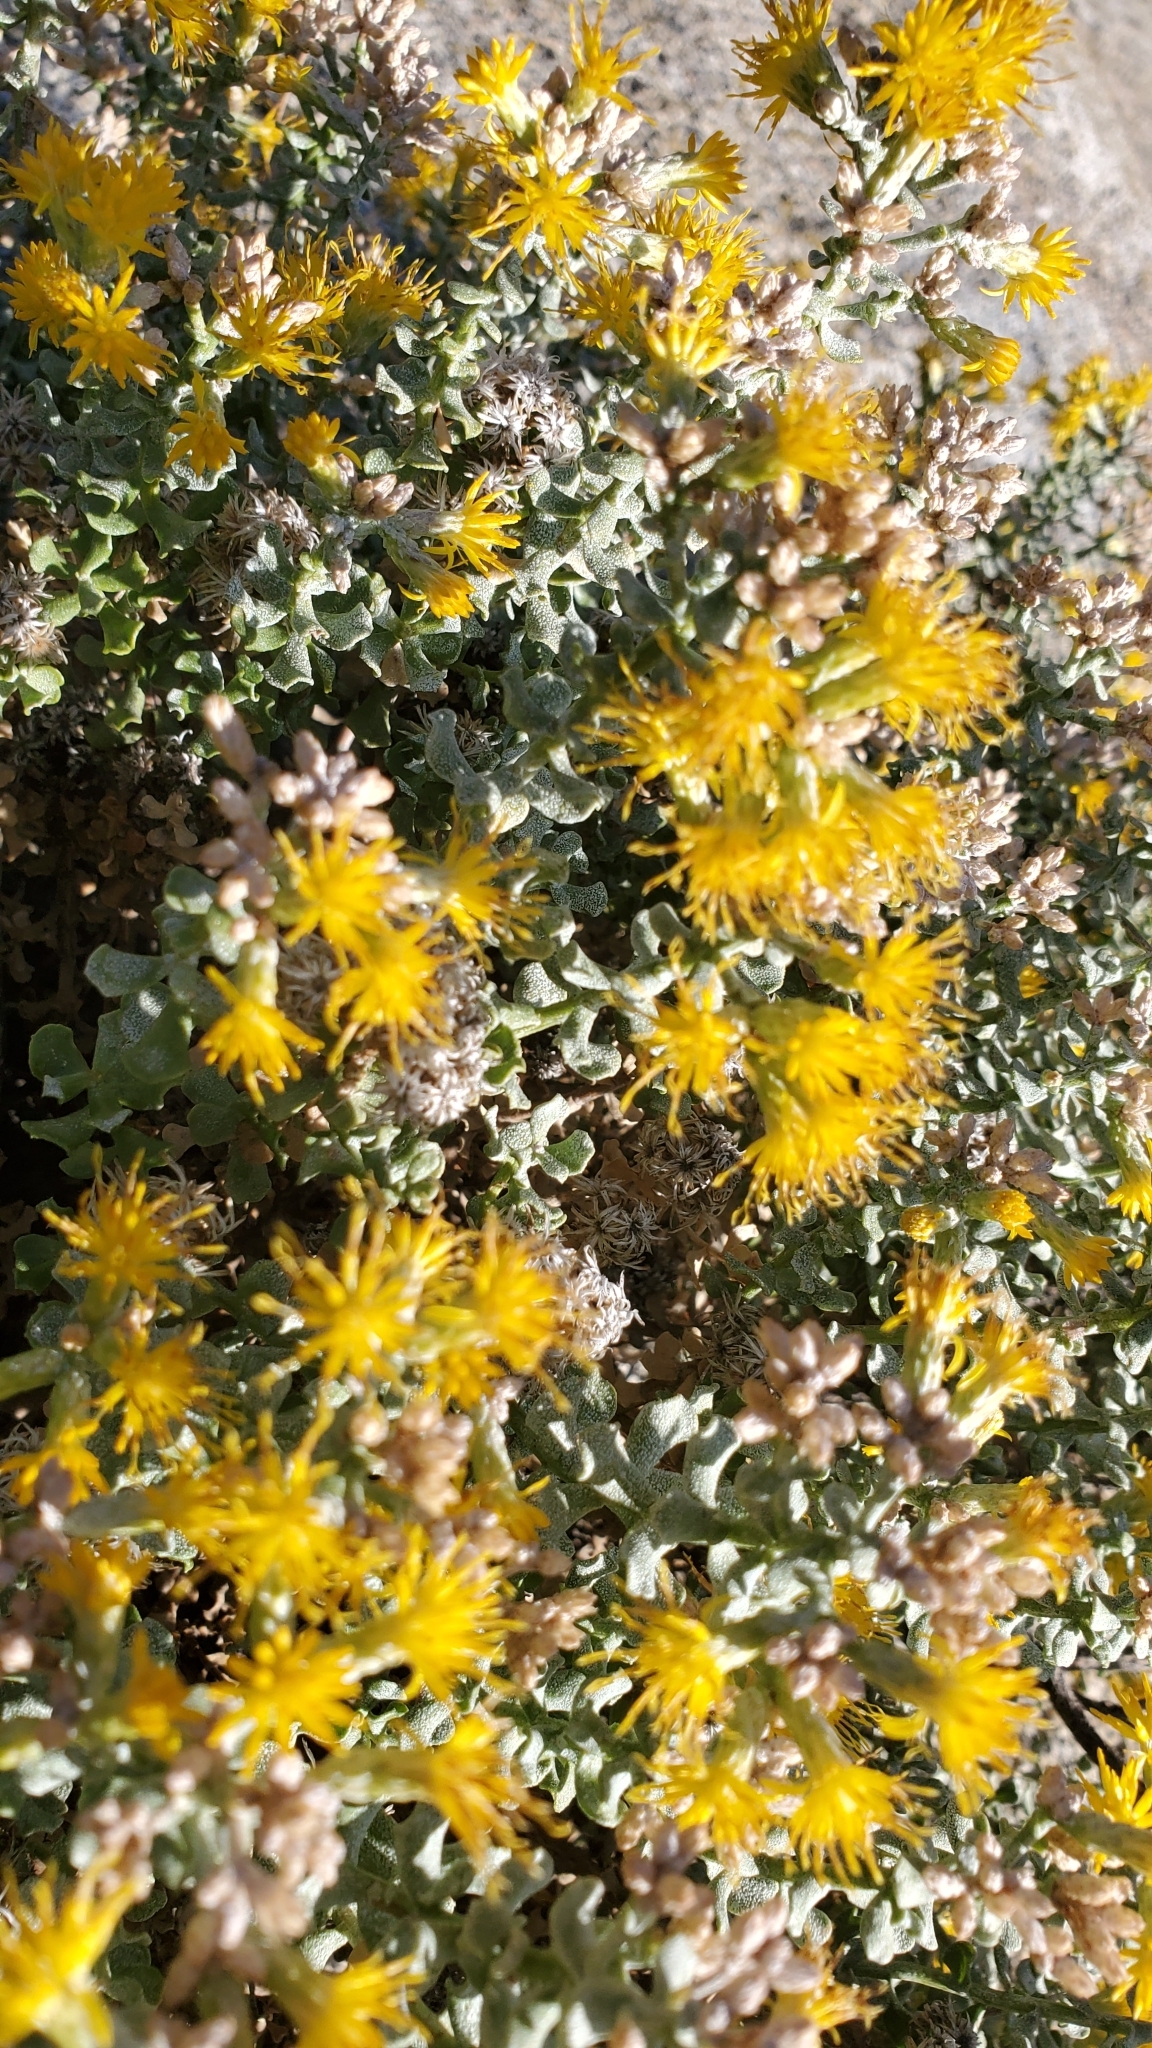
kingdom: Plantae
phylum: Tracheophyta
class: Magnoliopsida
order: Asterales
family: Asteraceae
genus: Ericameria
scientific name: Ericameria cuneata
